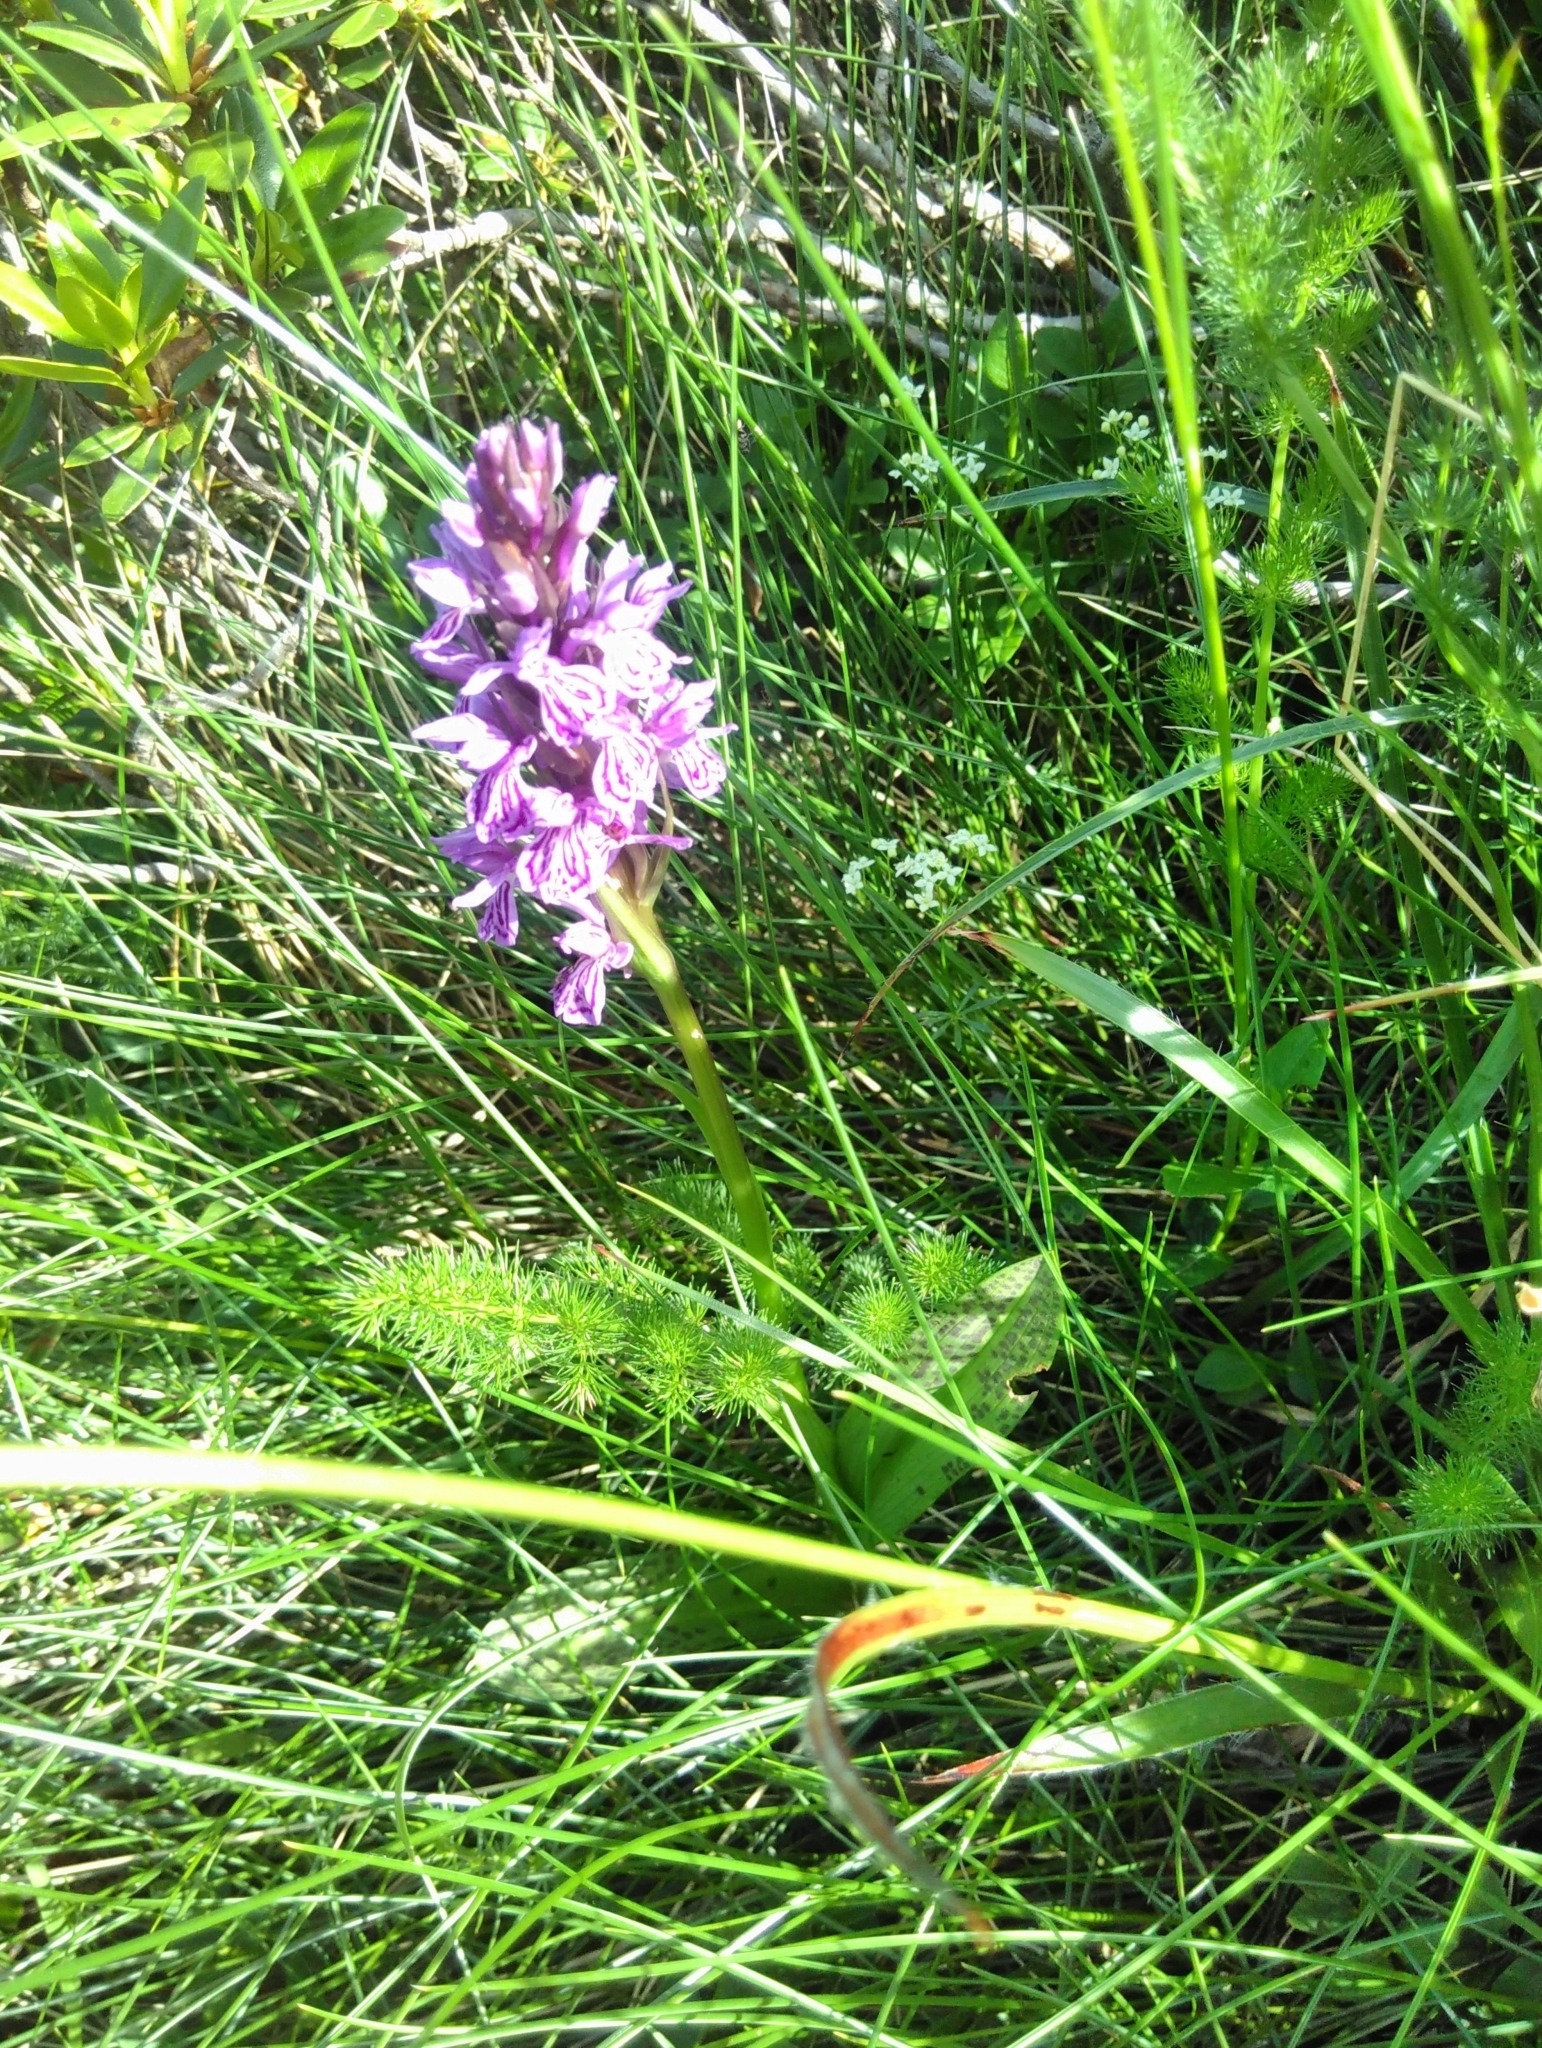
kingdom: Plantae
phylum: Tracheophyta
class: Liliopsida
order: Asparagales
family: Orchidaceae
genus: Dactylorhiza
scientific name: Dactylorhiza maculata
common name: Heath spotted-orchid
